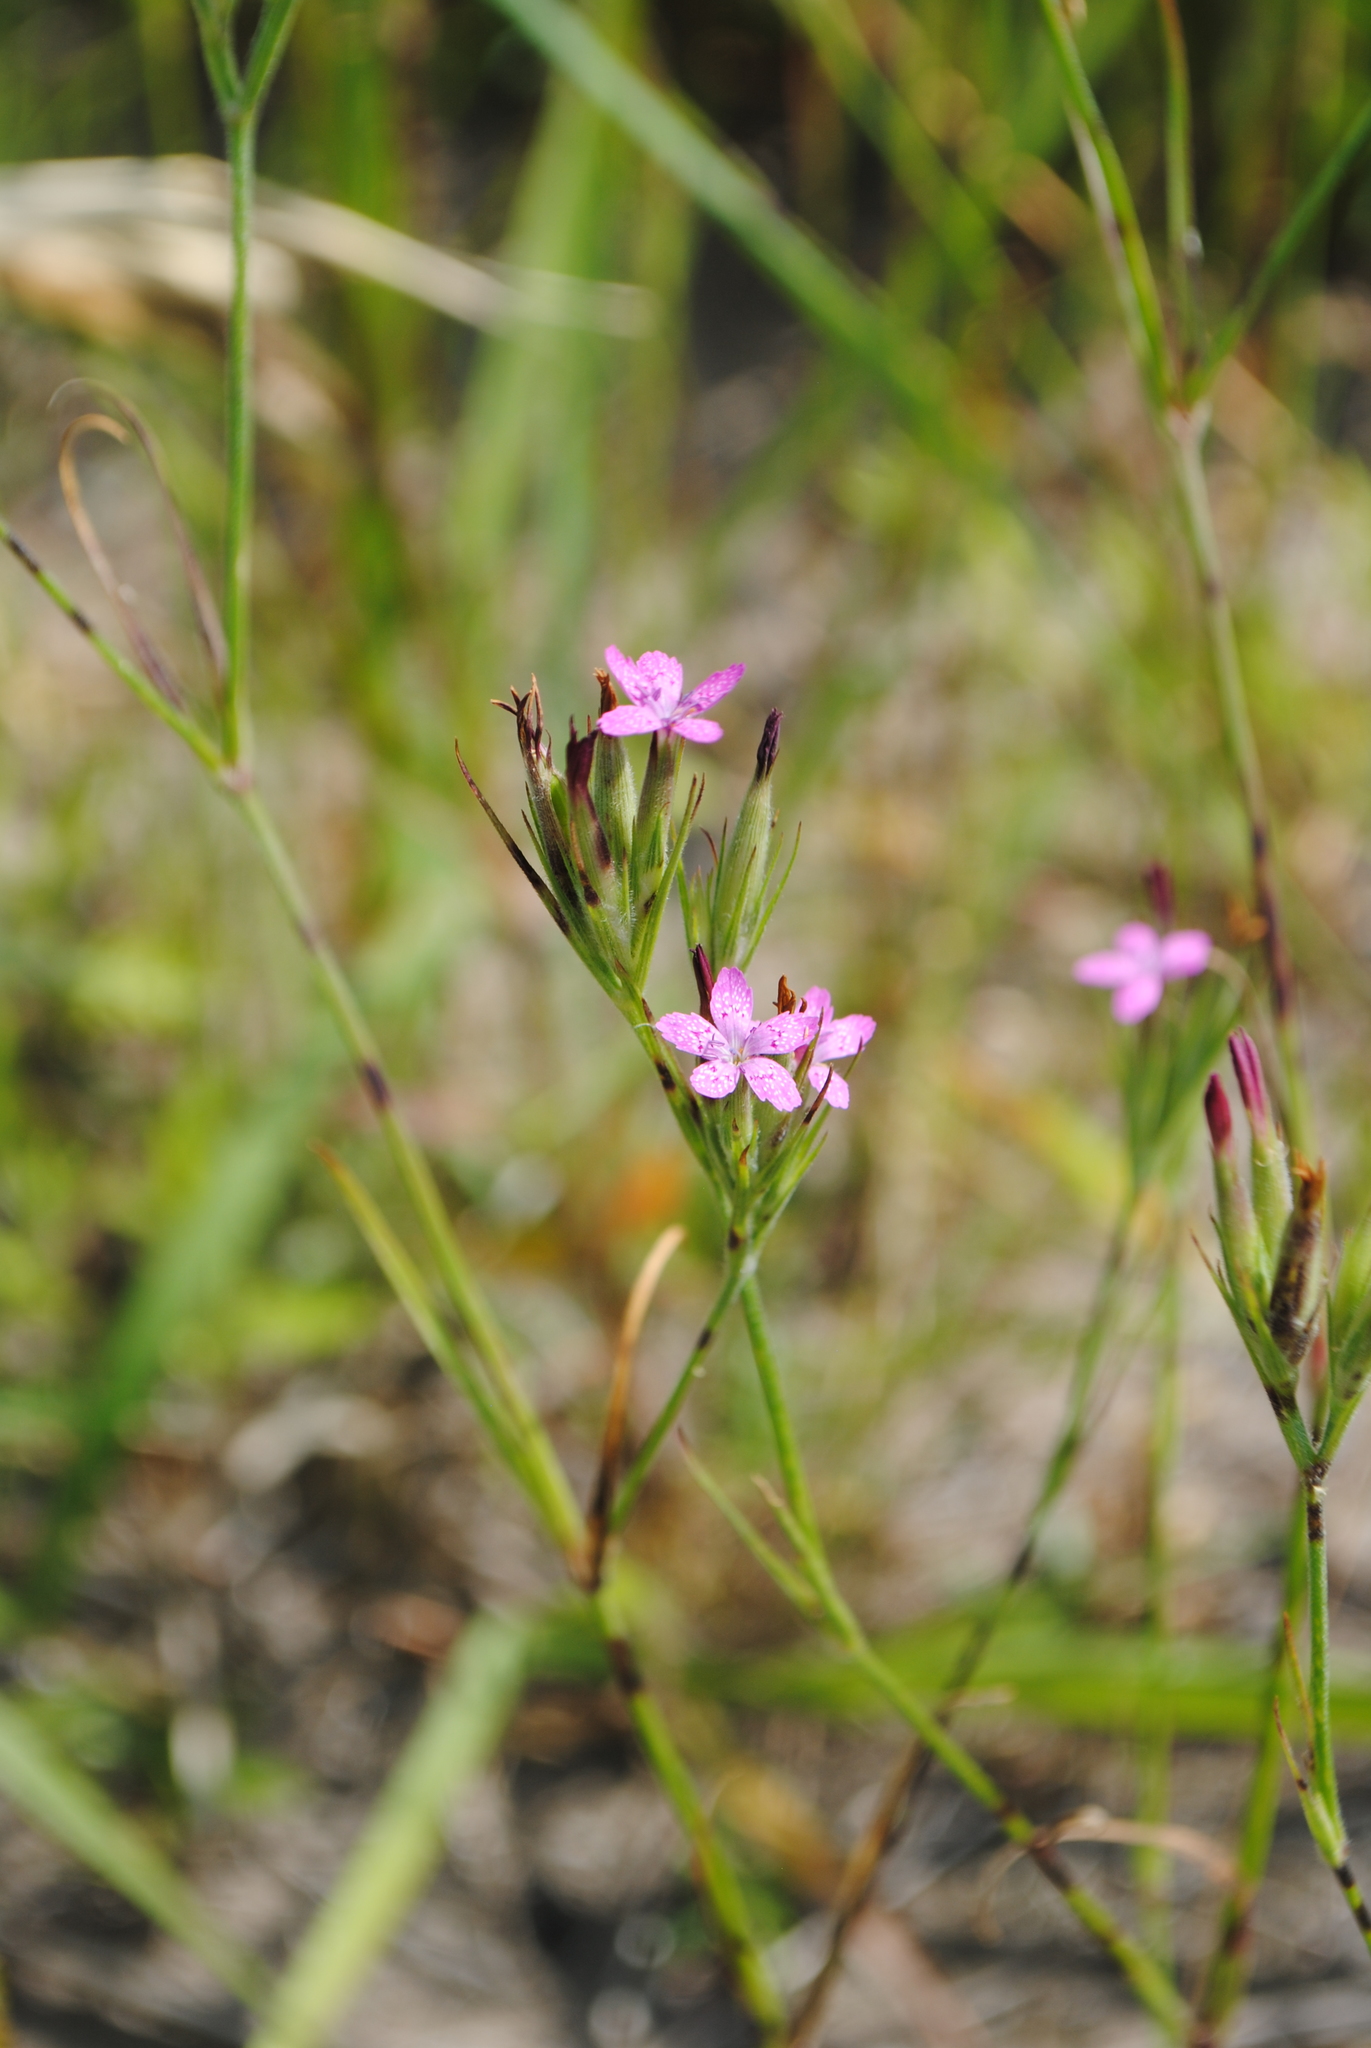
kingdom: Plantae
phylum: Tracheophyta
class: Magnoliopsida
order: Caryophyllales
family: Caryophyllaceae
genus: Dianthus
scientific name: Dianthus armeria
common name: Deptford pink
